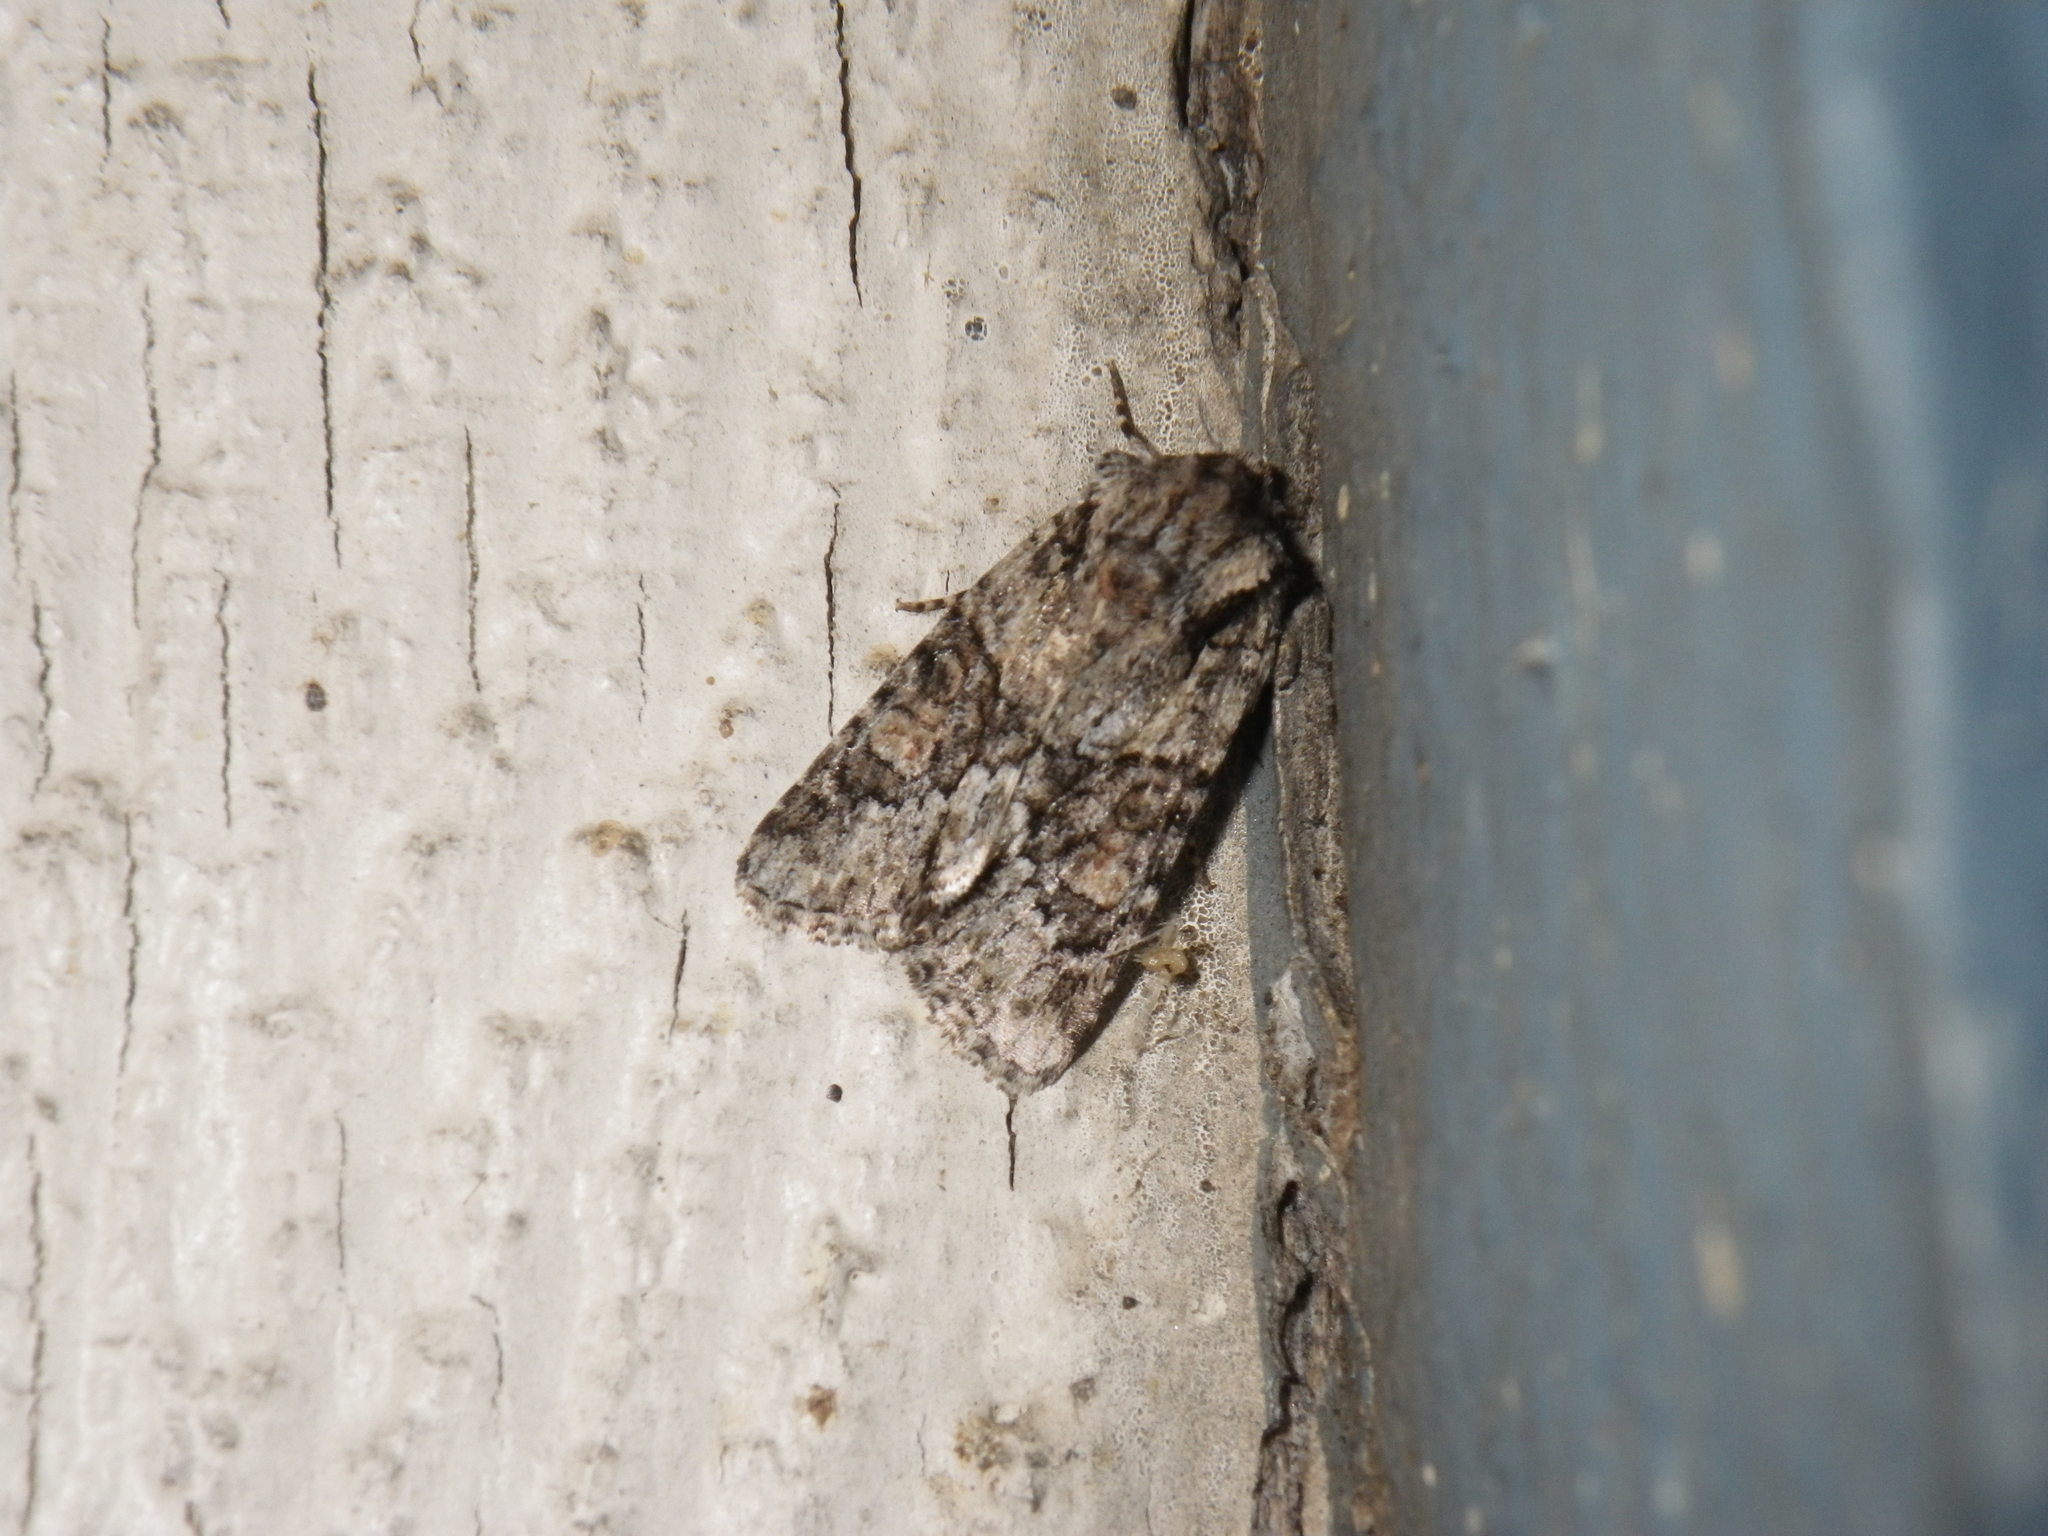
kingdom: Animalia
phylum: Arthropoda
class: Insecta
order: Lepidoptera
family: Noctuidae
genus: Lacinipolia
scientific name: Lacinipolia quadrilineata
